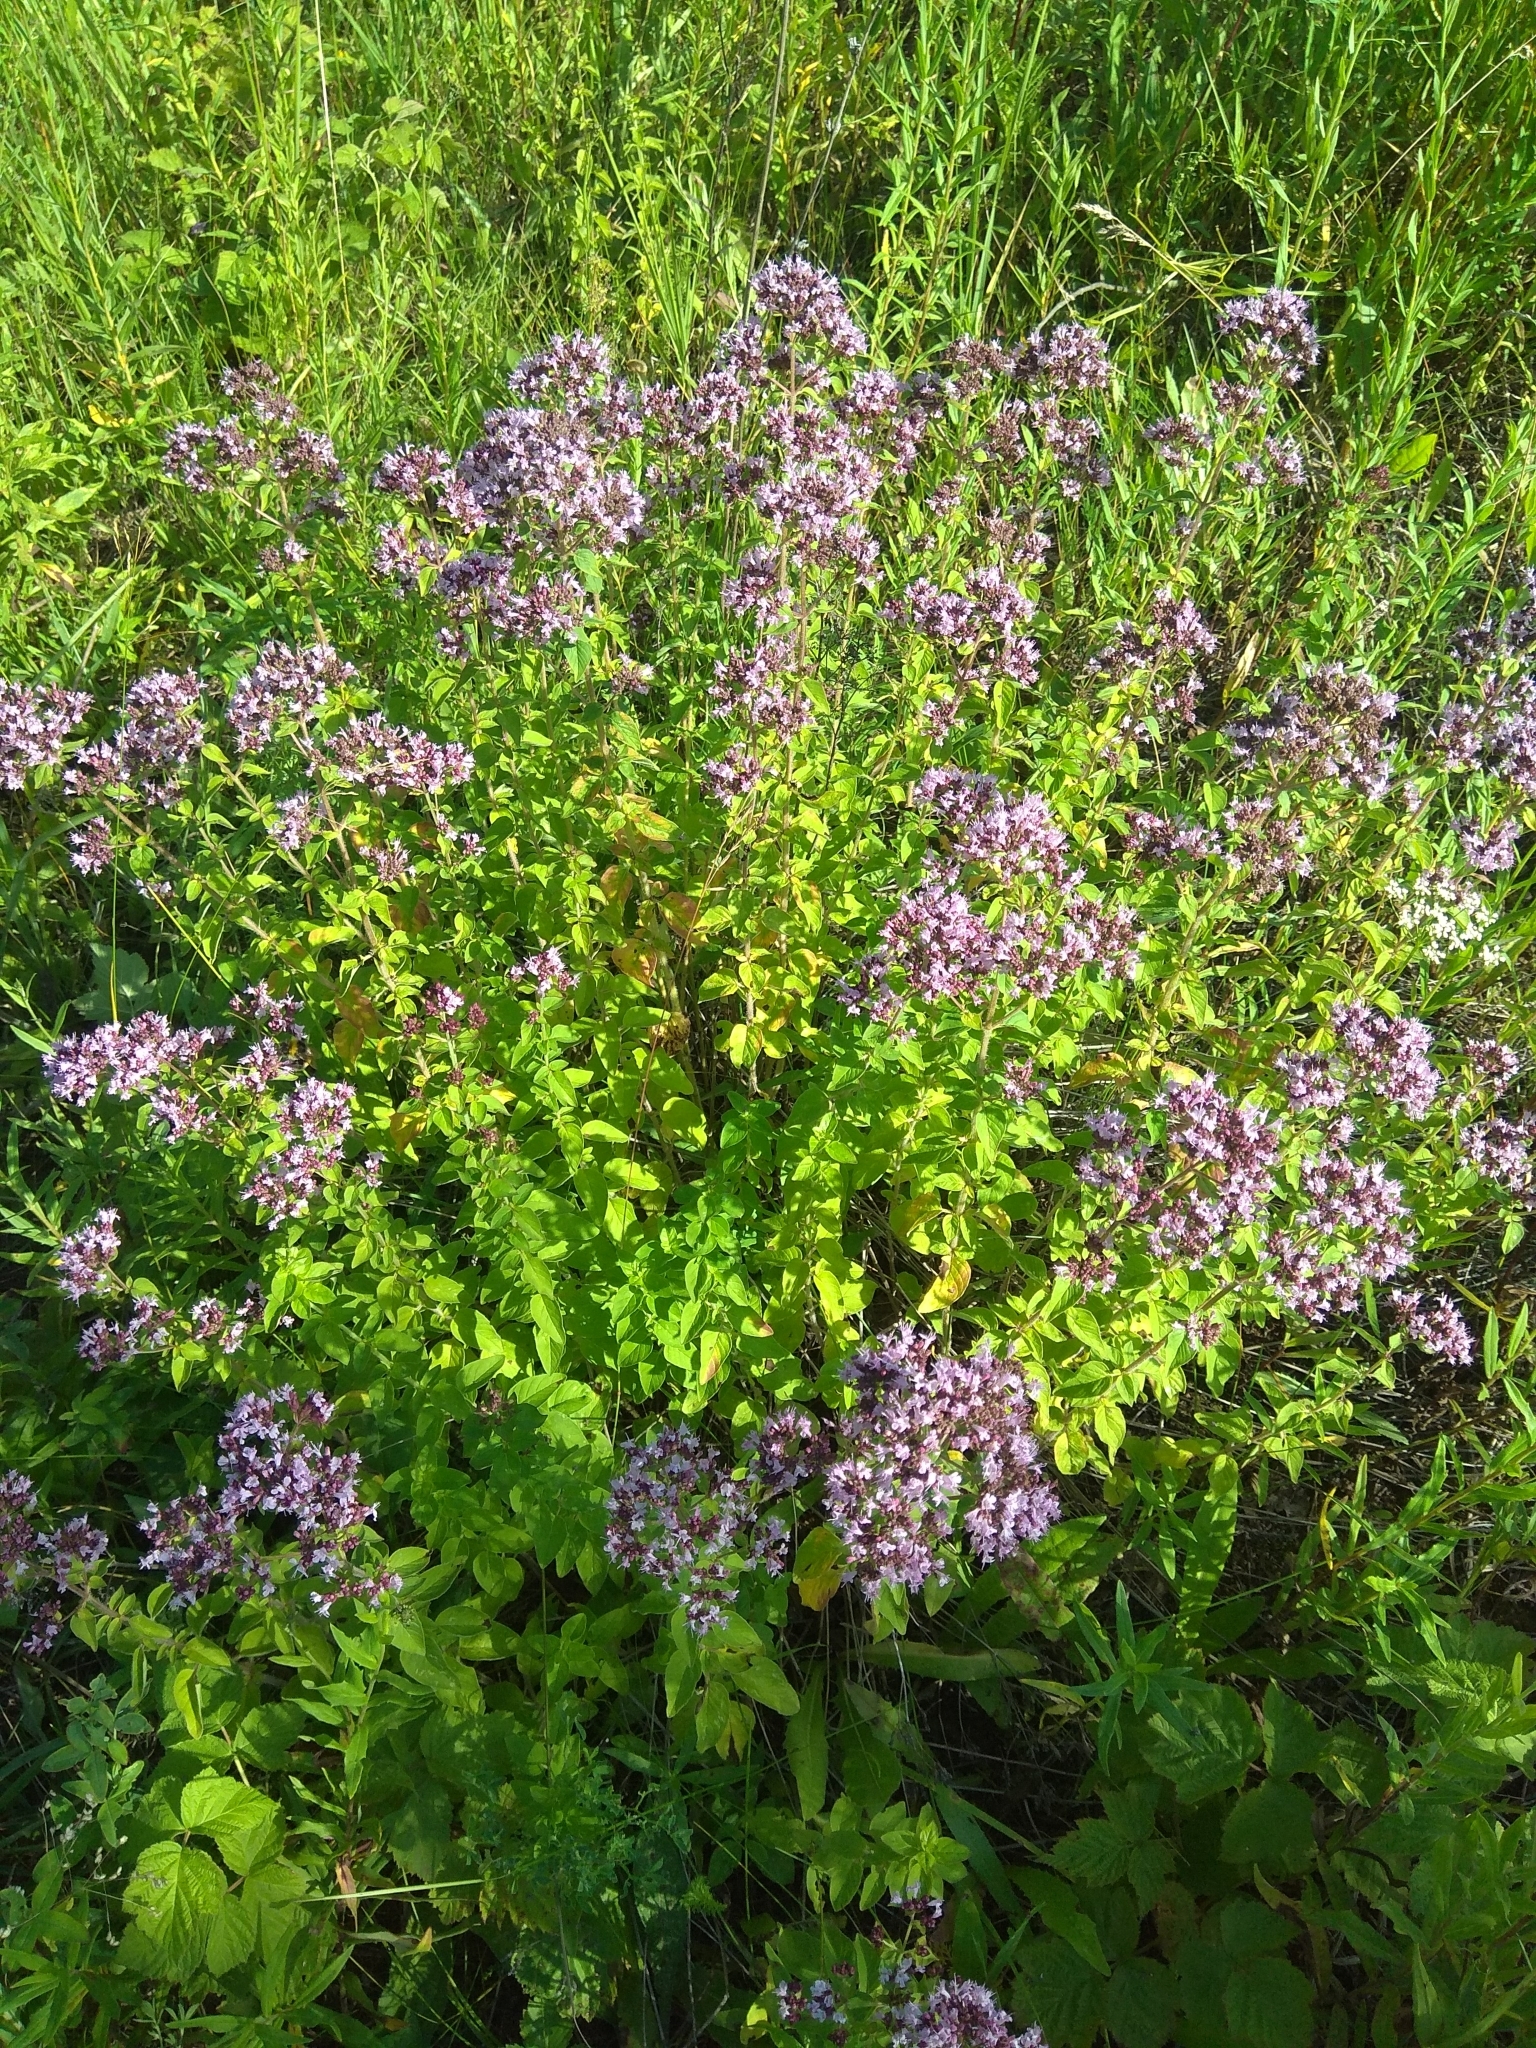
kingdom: Plantae
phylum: Tracheophyta
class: Magnoliopsida
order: Lamiales
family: Lamiaceae
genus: Origanum
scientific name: Origanum vulgare
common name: Wild marjoram
